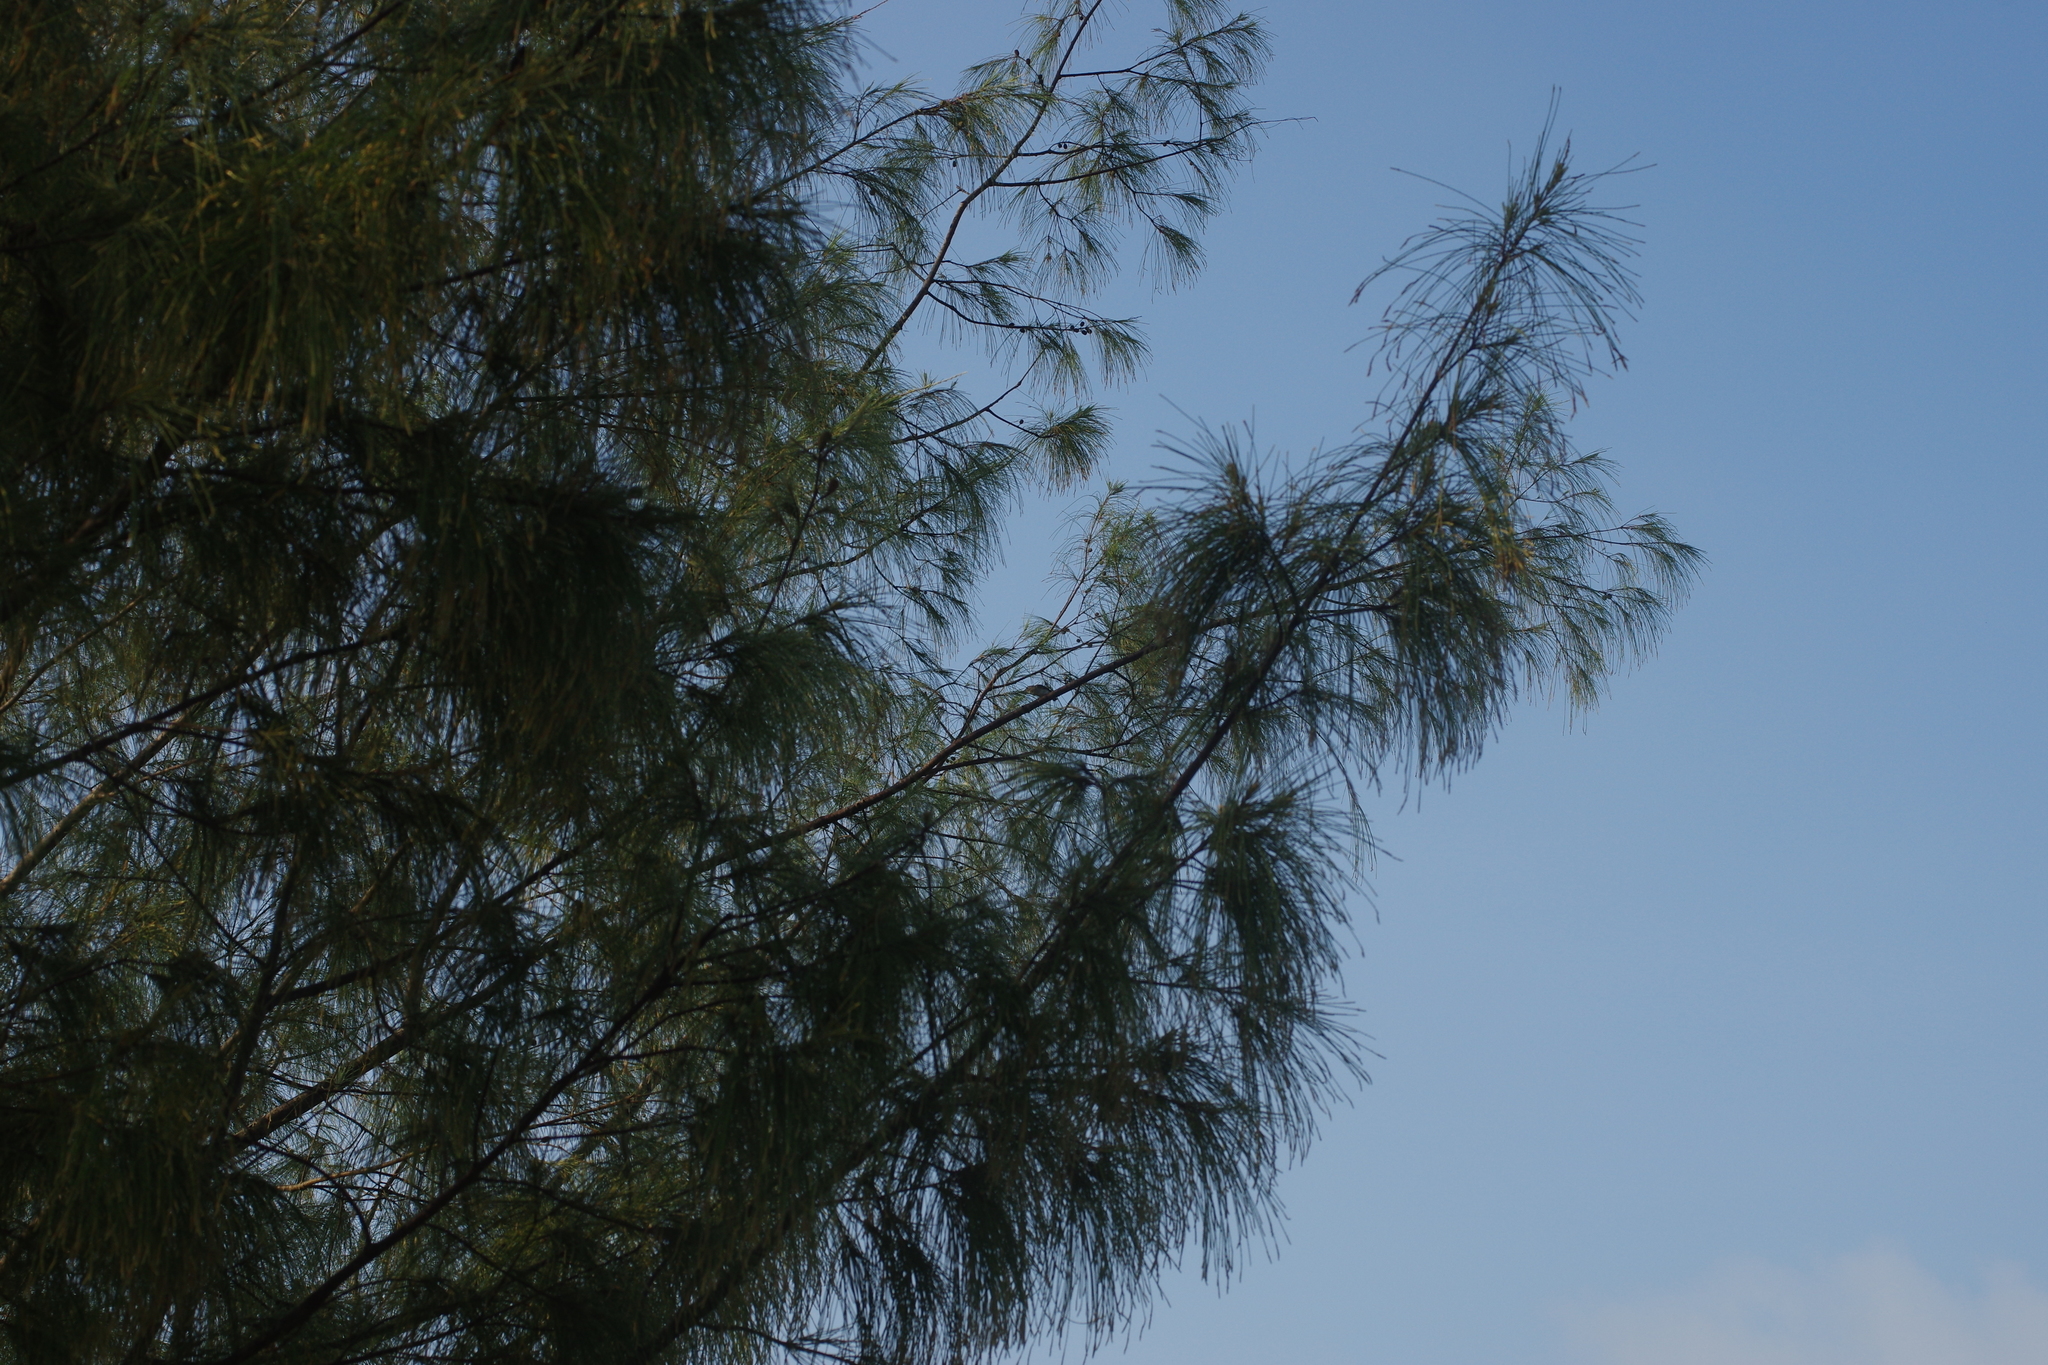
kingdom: Animalia
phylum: Chordata
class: Aves
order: Passeriformes
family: Muscicapidae
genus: Muscicapa
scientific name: Muscicapa latirostris
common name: Asian brown flycatcher
